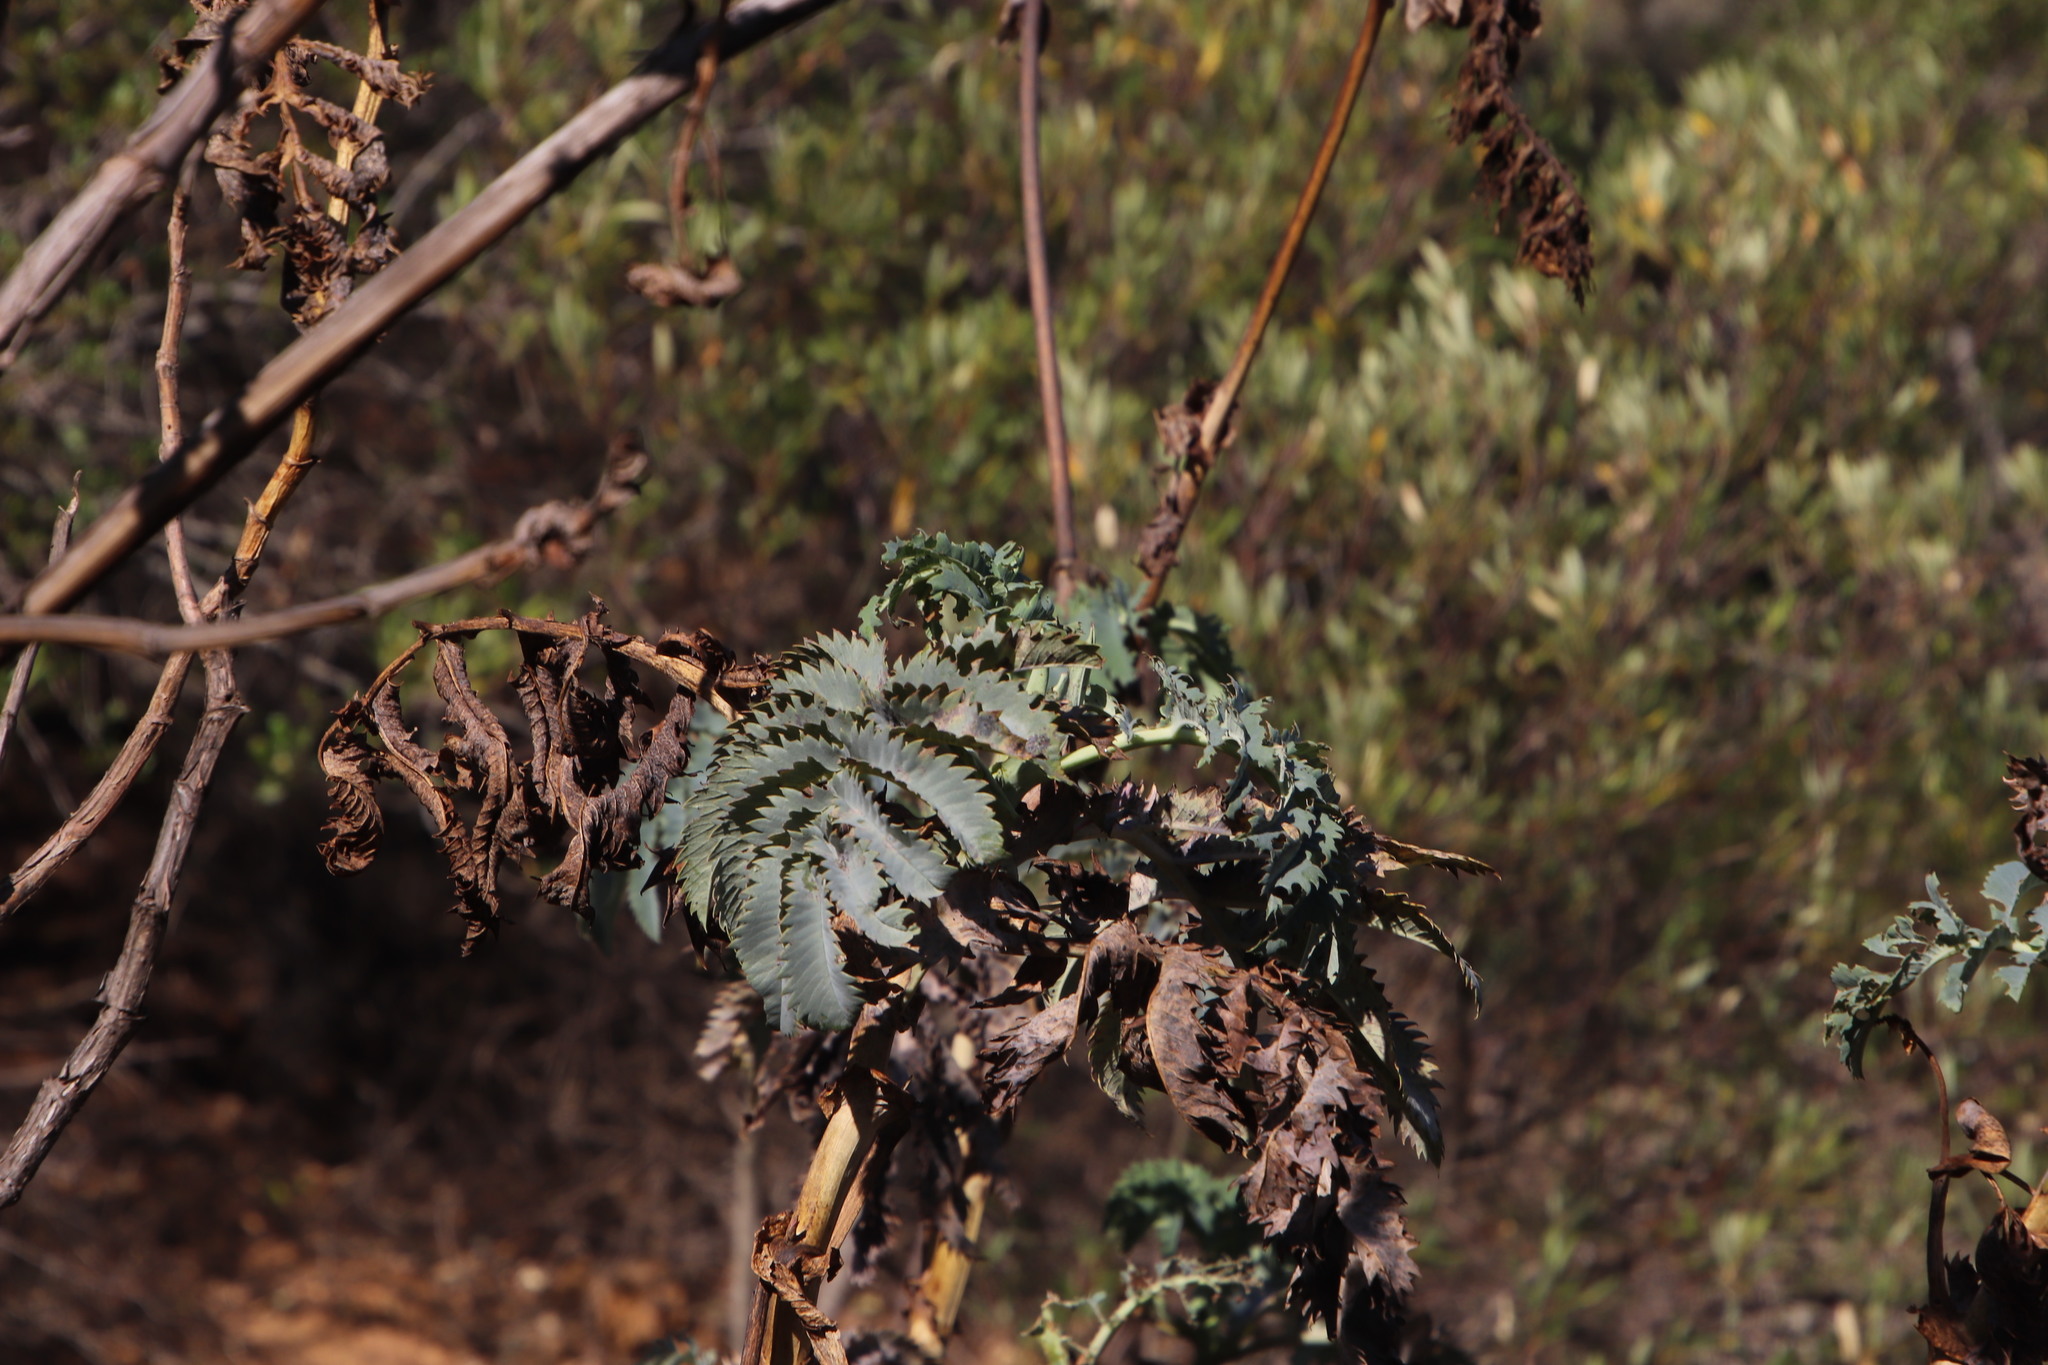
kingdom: Plantae
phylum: Tracheophyta
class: Magnoliopsida
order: Geraniales
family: Melianthaceae
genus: Melianthus
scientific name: Melianthus major
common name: Honey-flower
